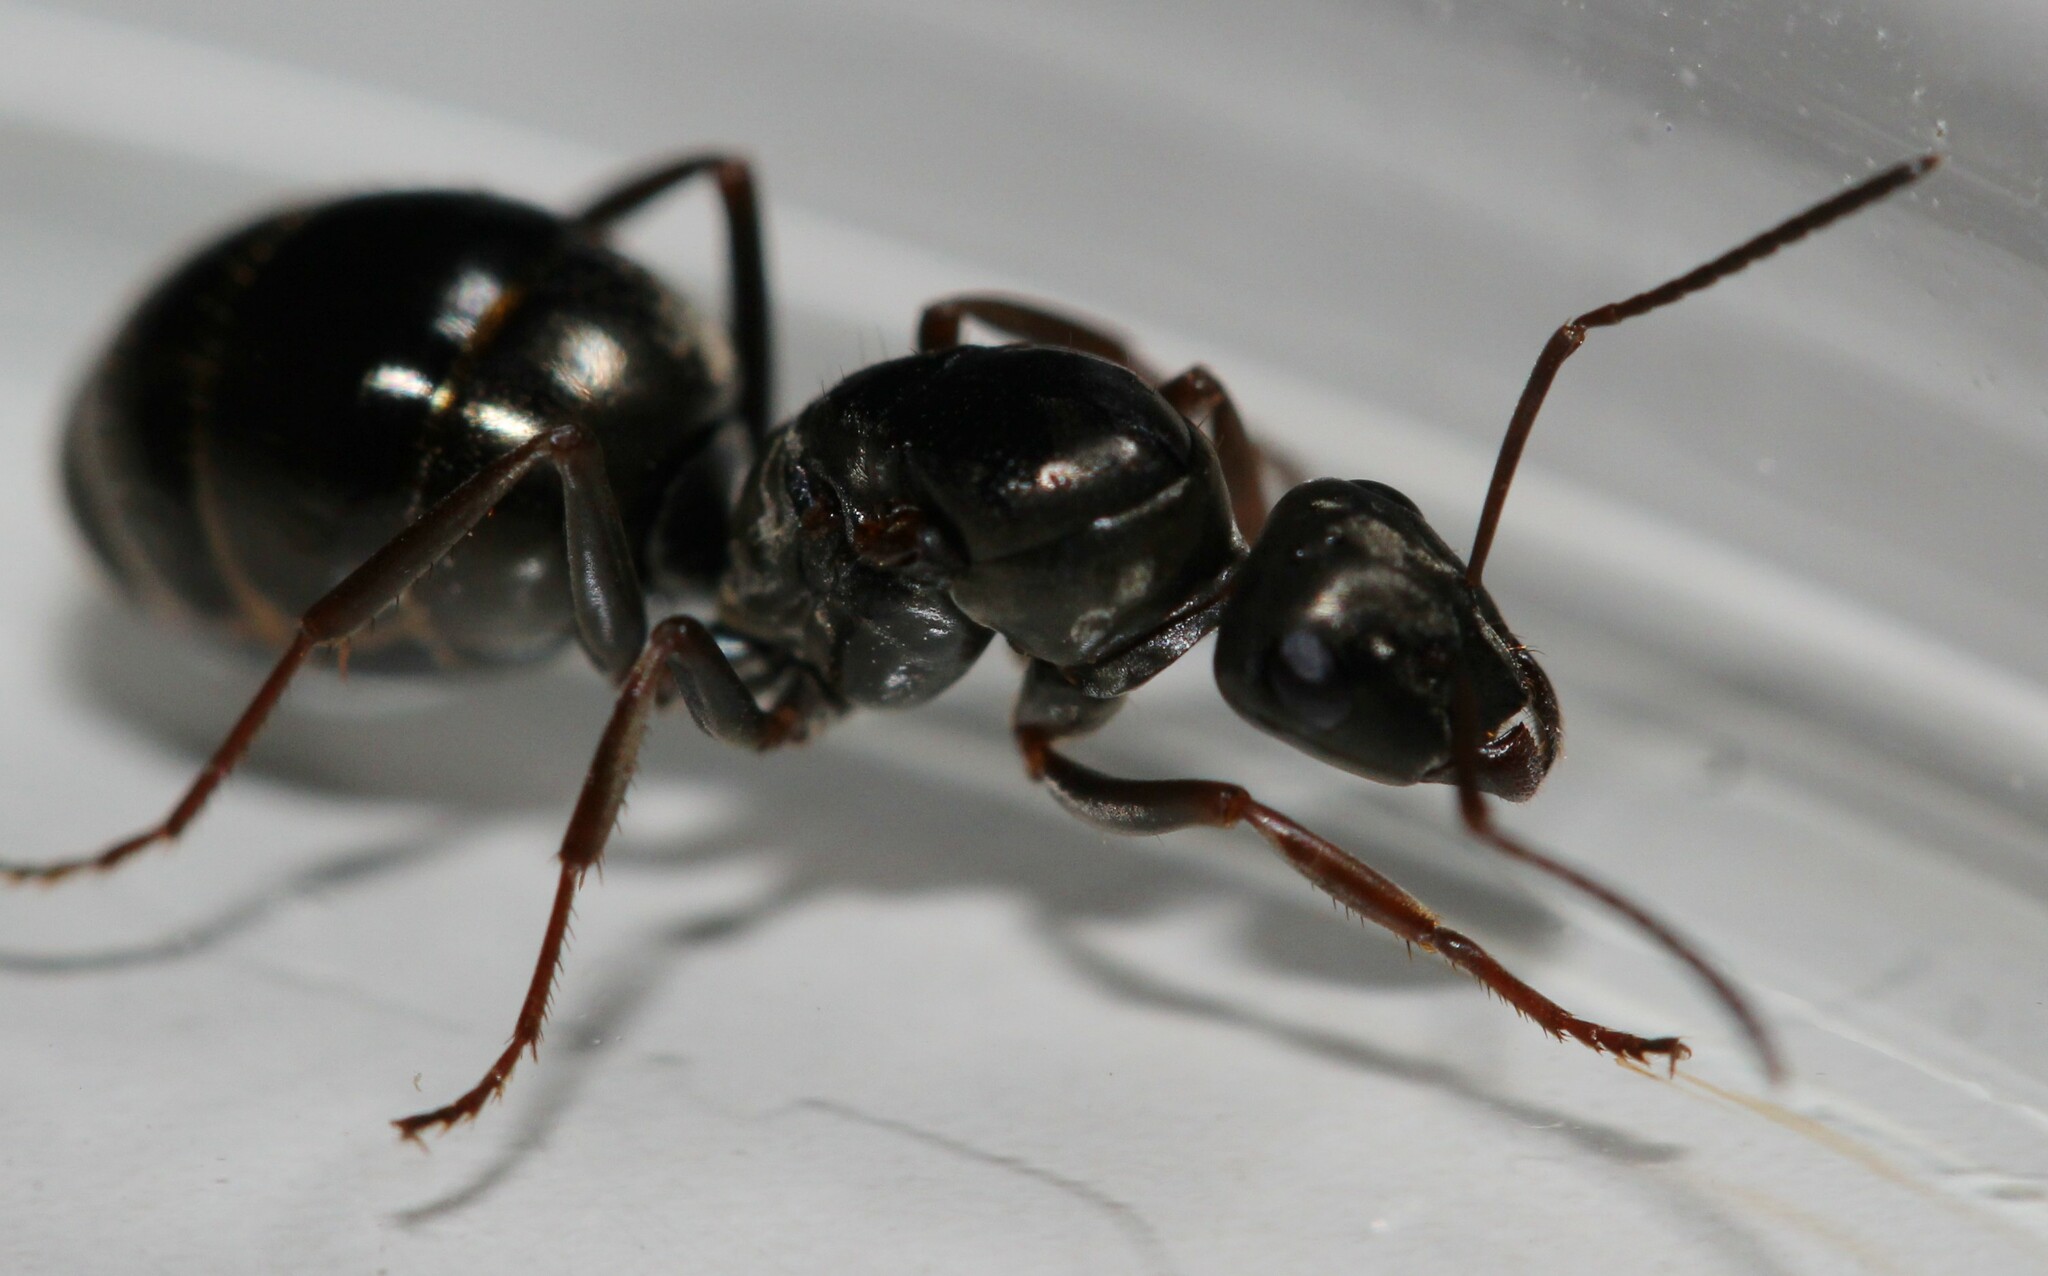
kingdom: Animalia
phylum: Arthropoda
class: Insecta
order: Hymenoptera
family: Formicidae
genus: Formica
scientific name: Formica
